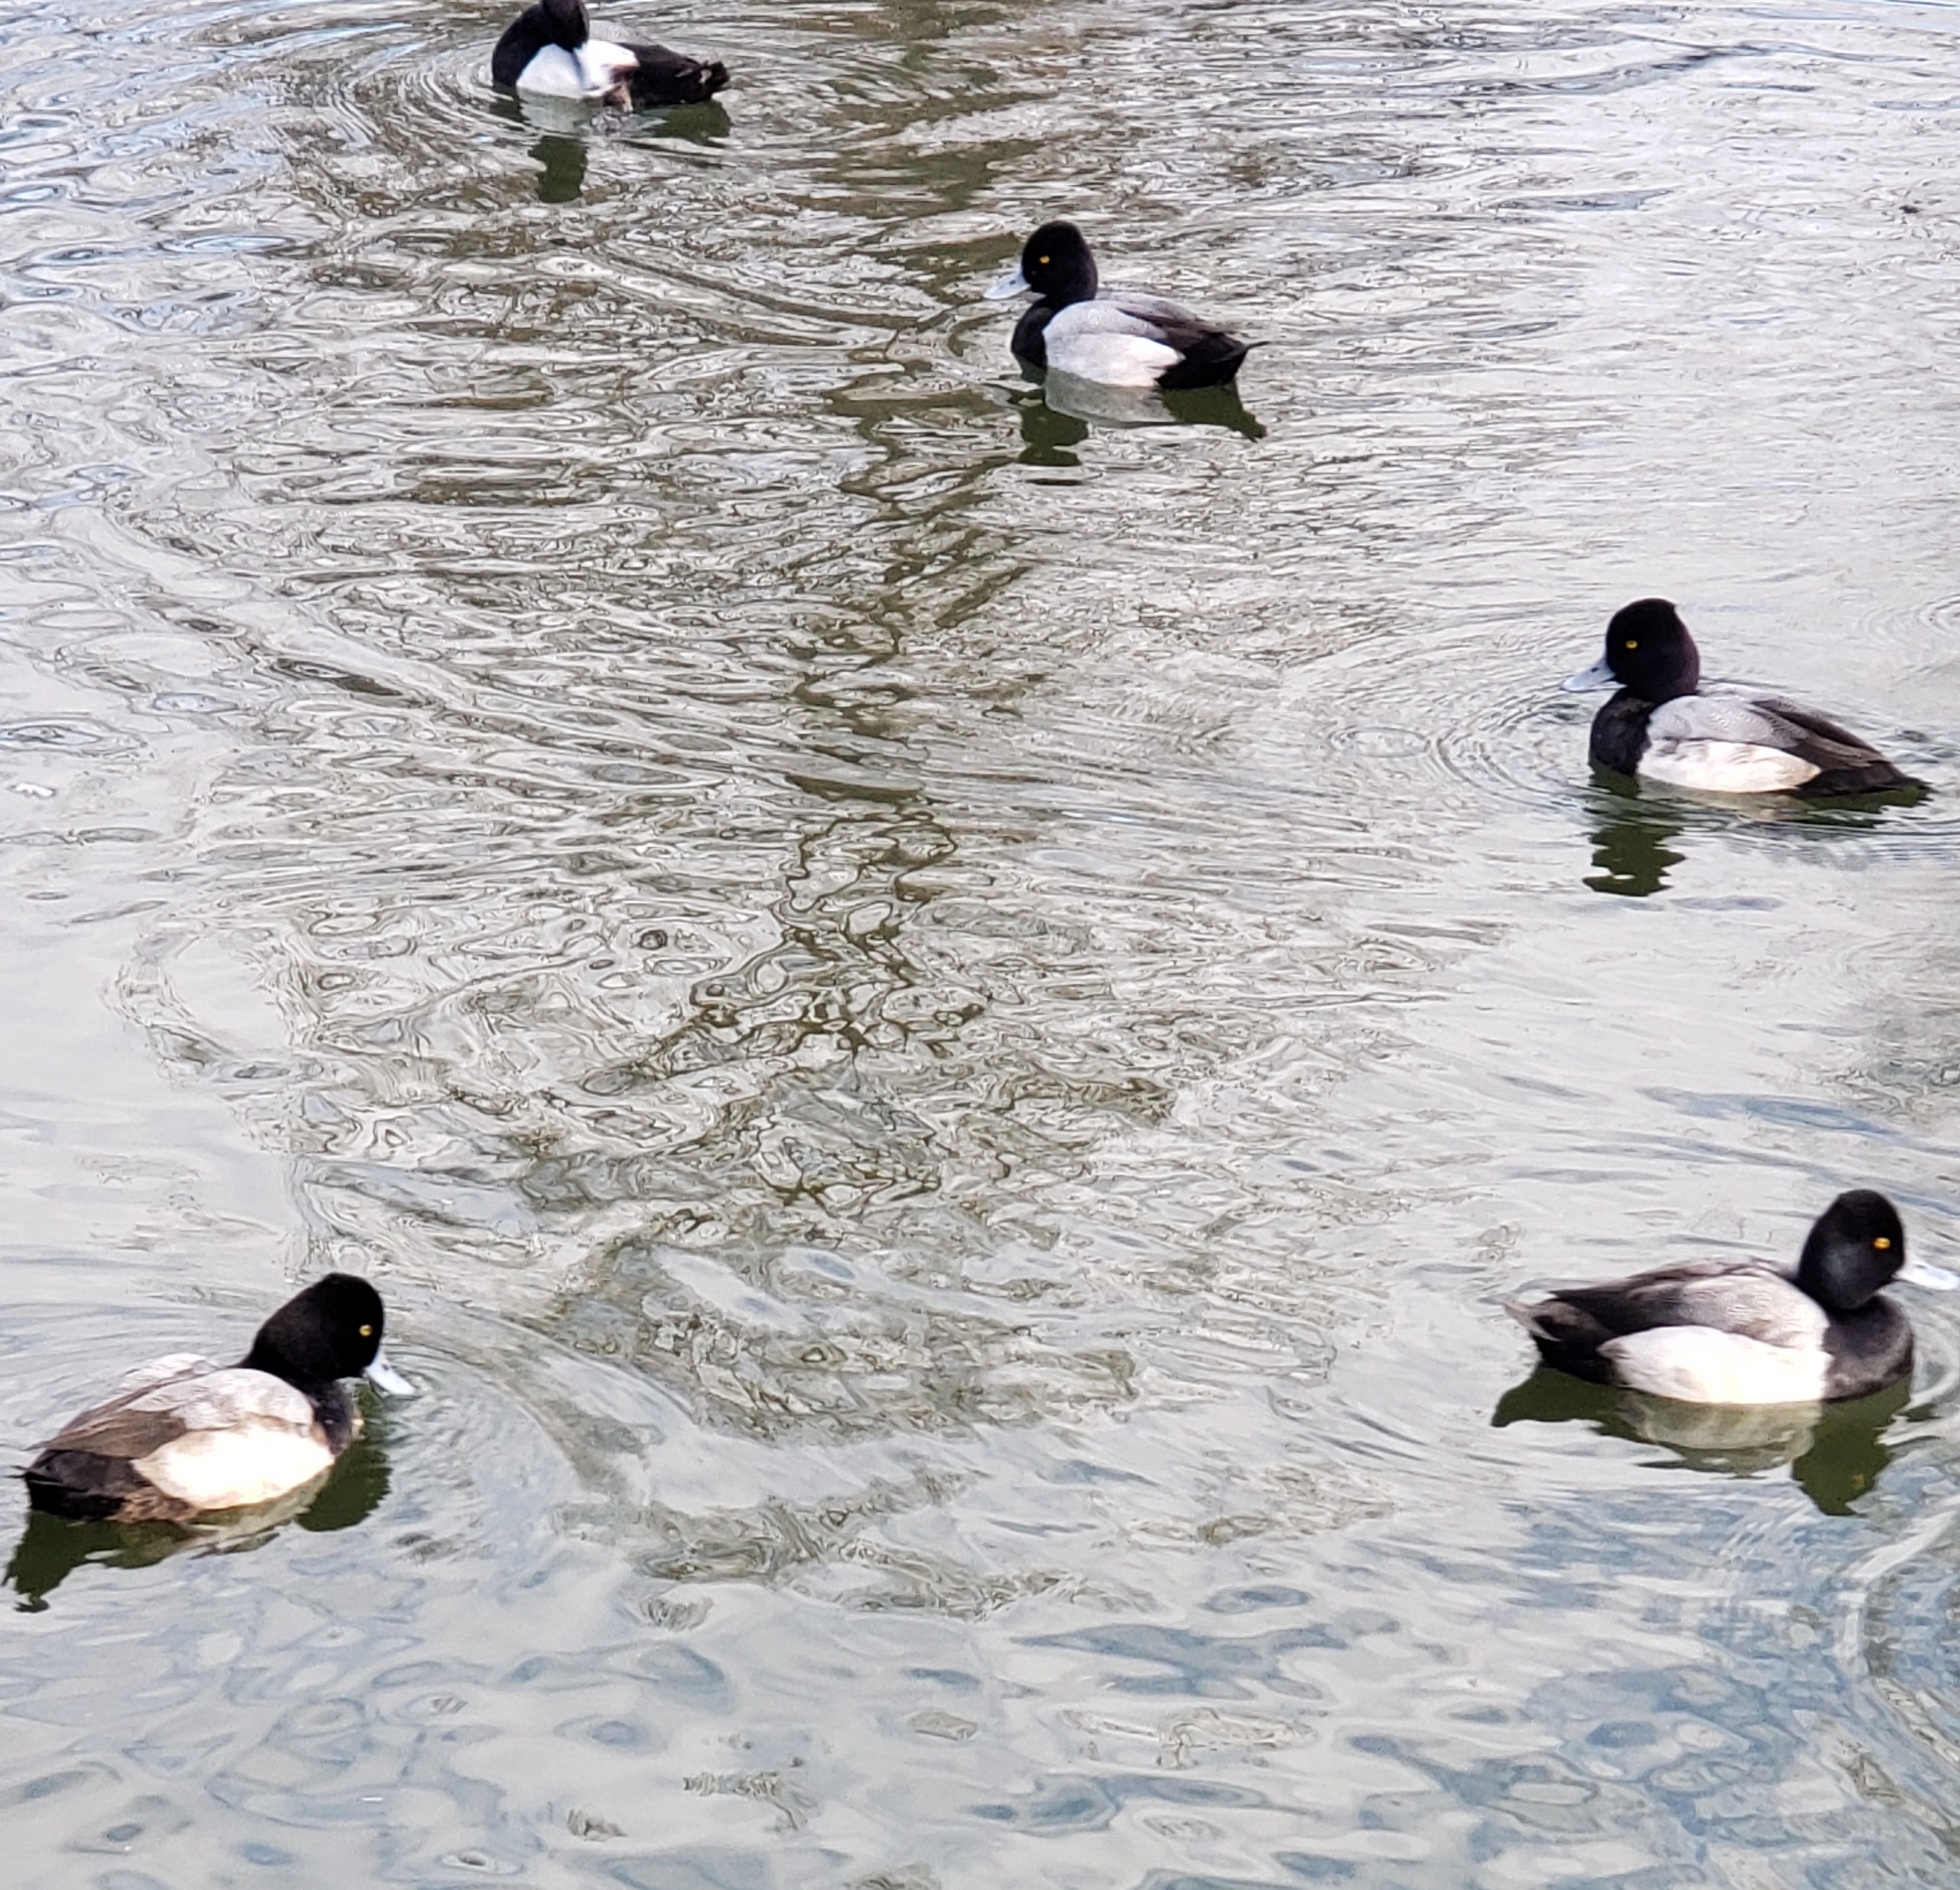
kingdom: Animalia
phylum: Chordata
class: Aves
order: Anseriformes
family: Anatidae
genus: Aythya
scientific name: Aythya affinis
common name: Lesser scaup
